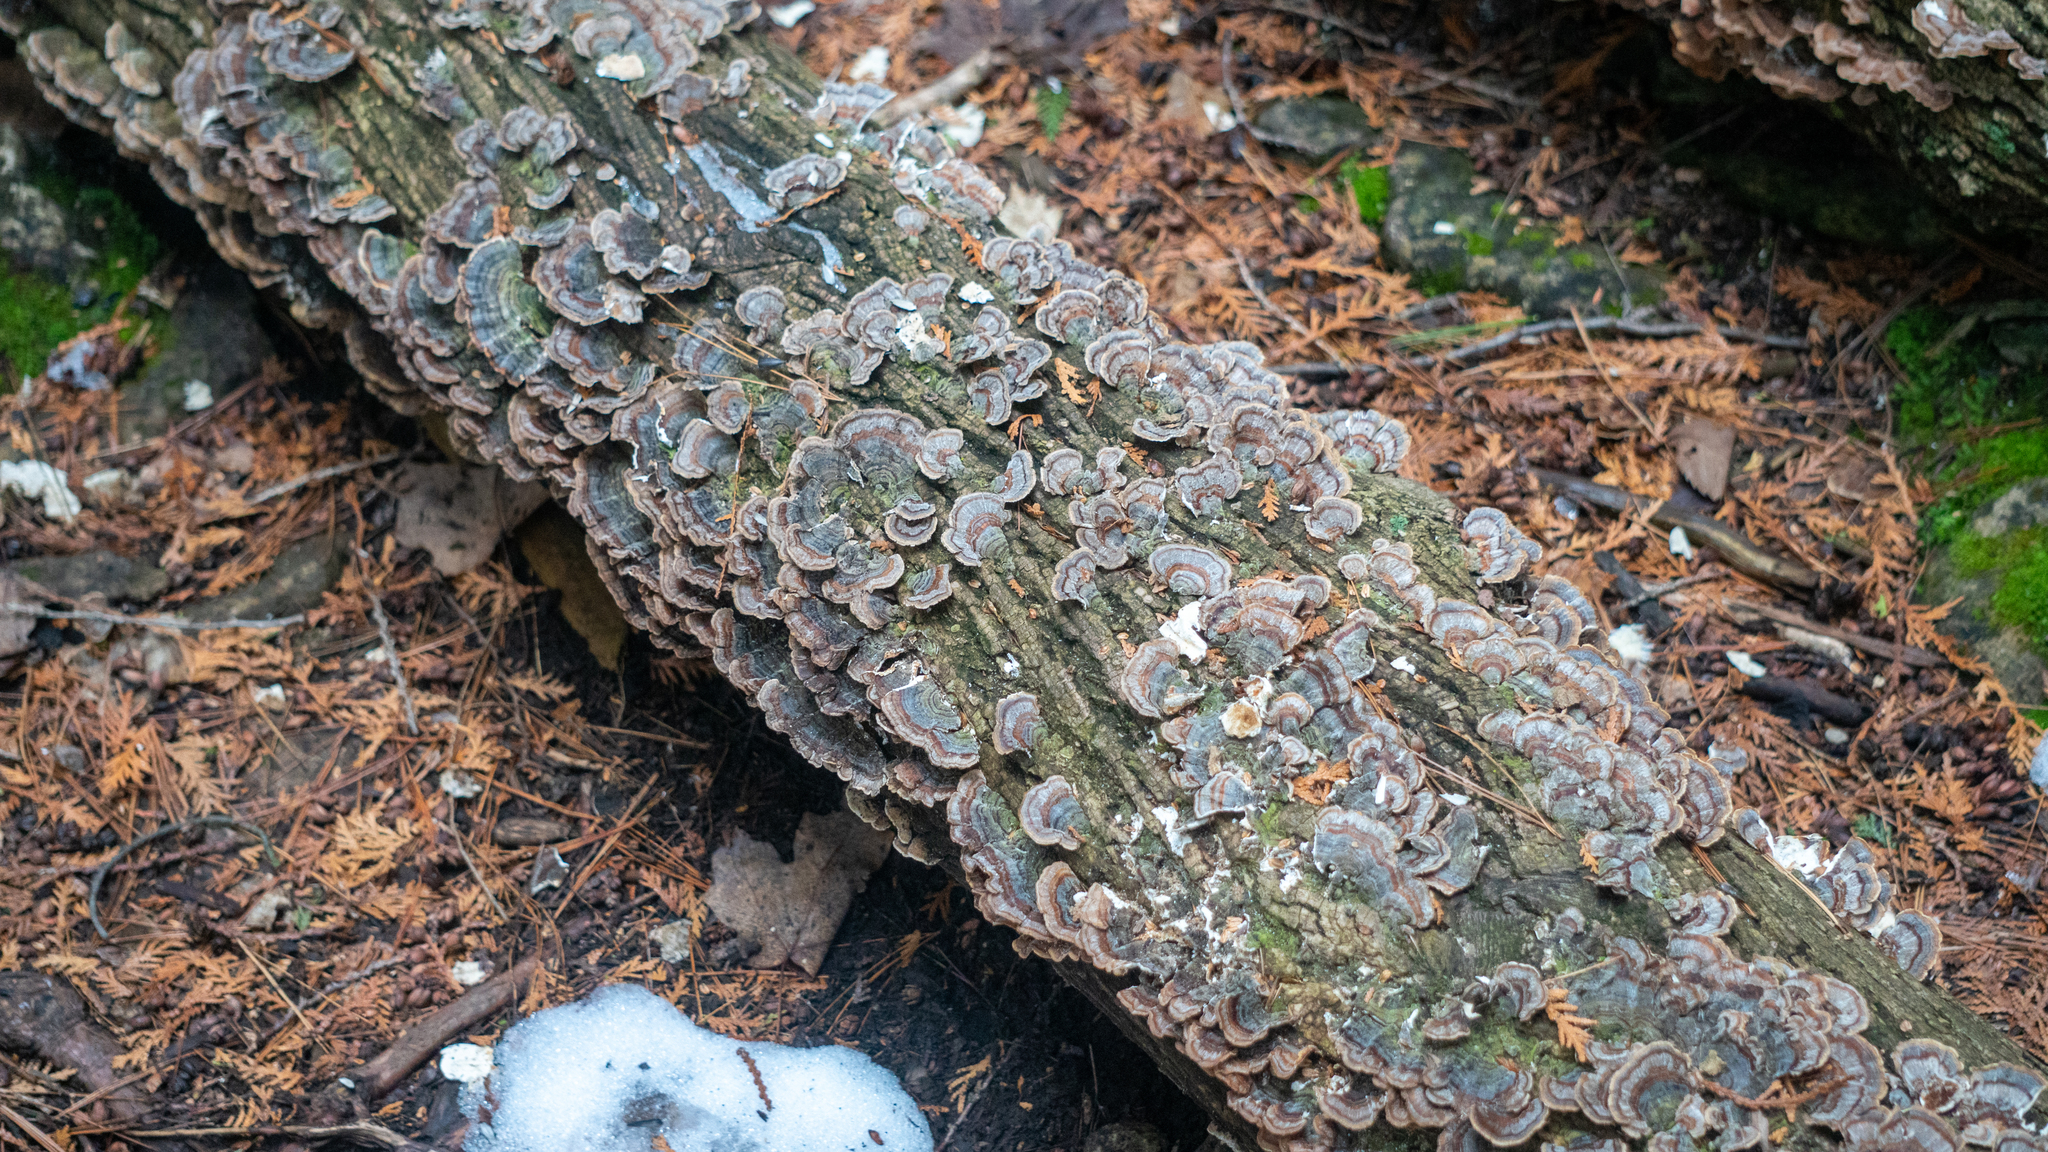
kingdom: Fungi
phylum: Basidiomycota
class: Agaricomycetes
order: Polyporales
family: Polyporaceae
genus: Trametes
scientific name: Trametes versicolor
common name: Turkeytail
